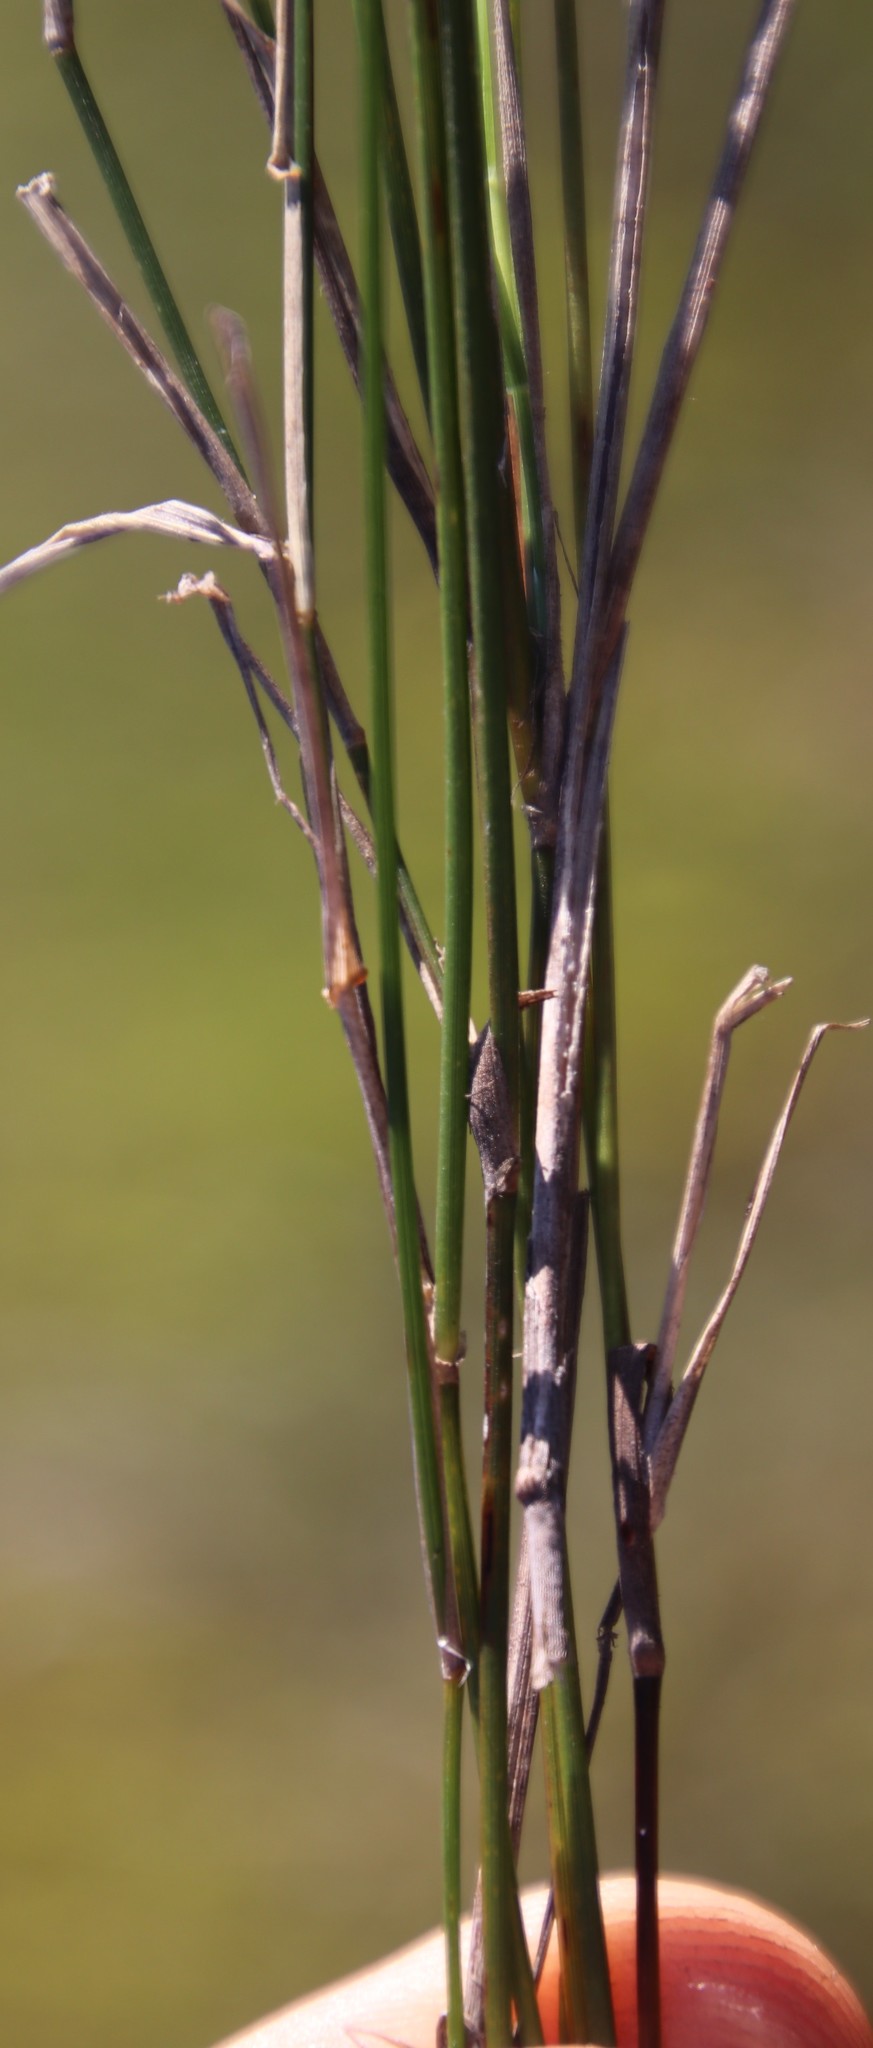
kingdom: Plantae
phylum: Tracheophyta
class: Liliopsida
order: Poales
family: Poaceae
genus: Ehrharta
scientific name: Ehrharta calycina
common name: Perennial veldtgrass
